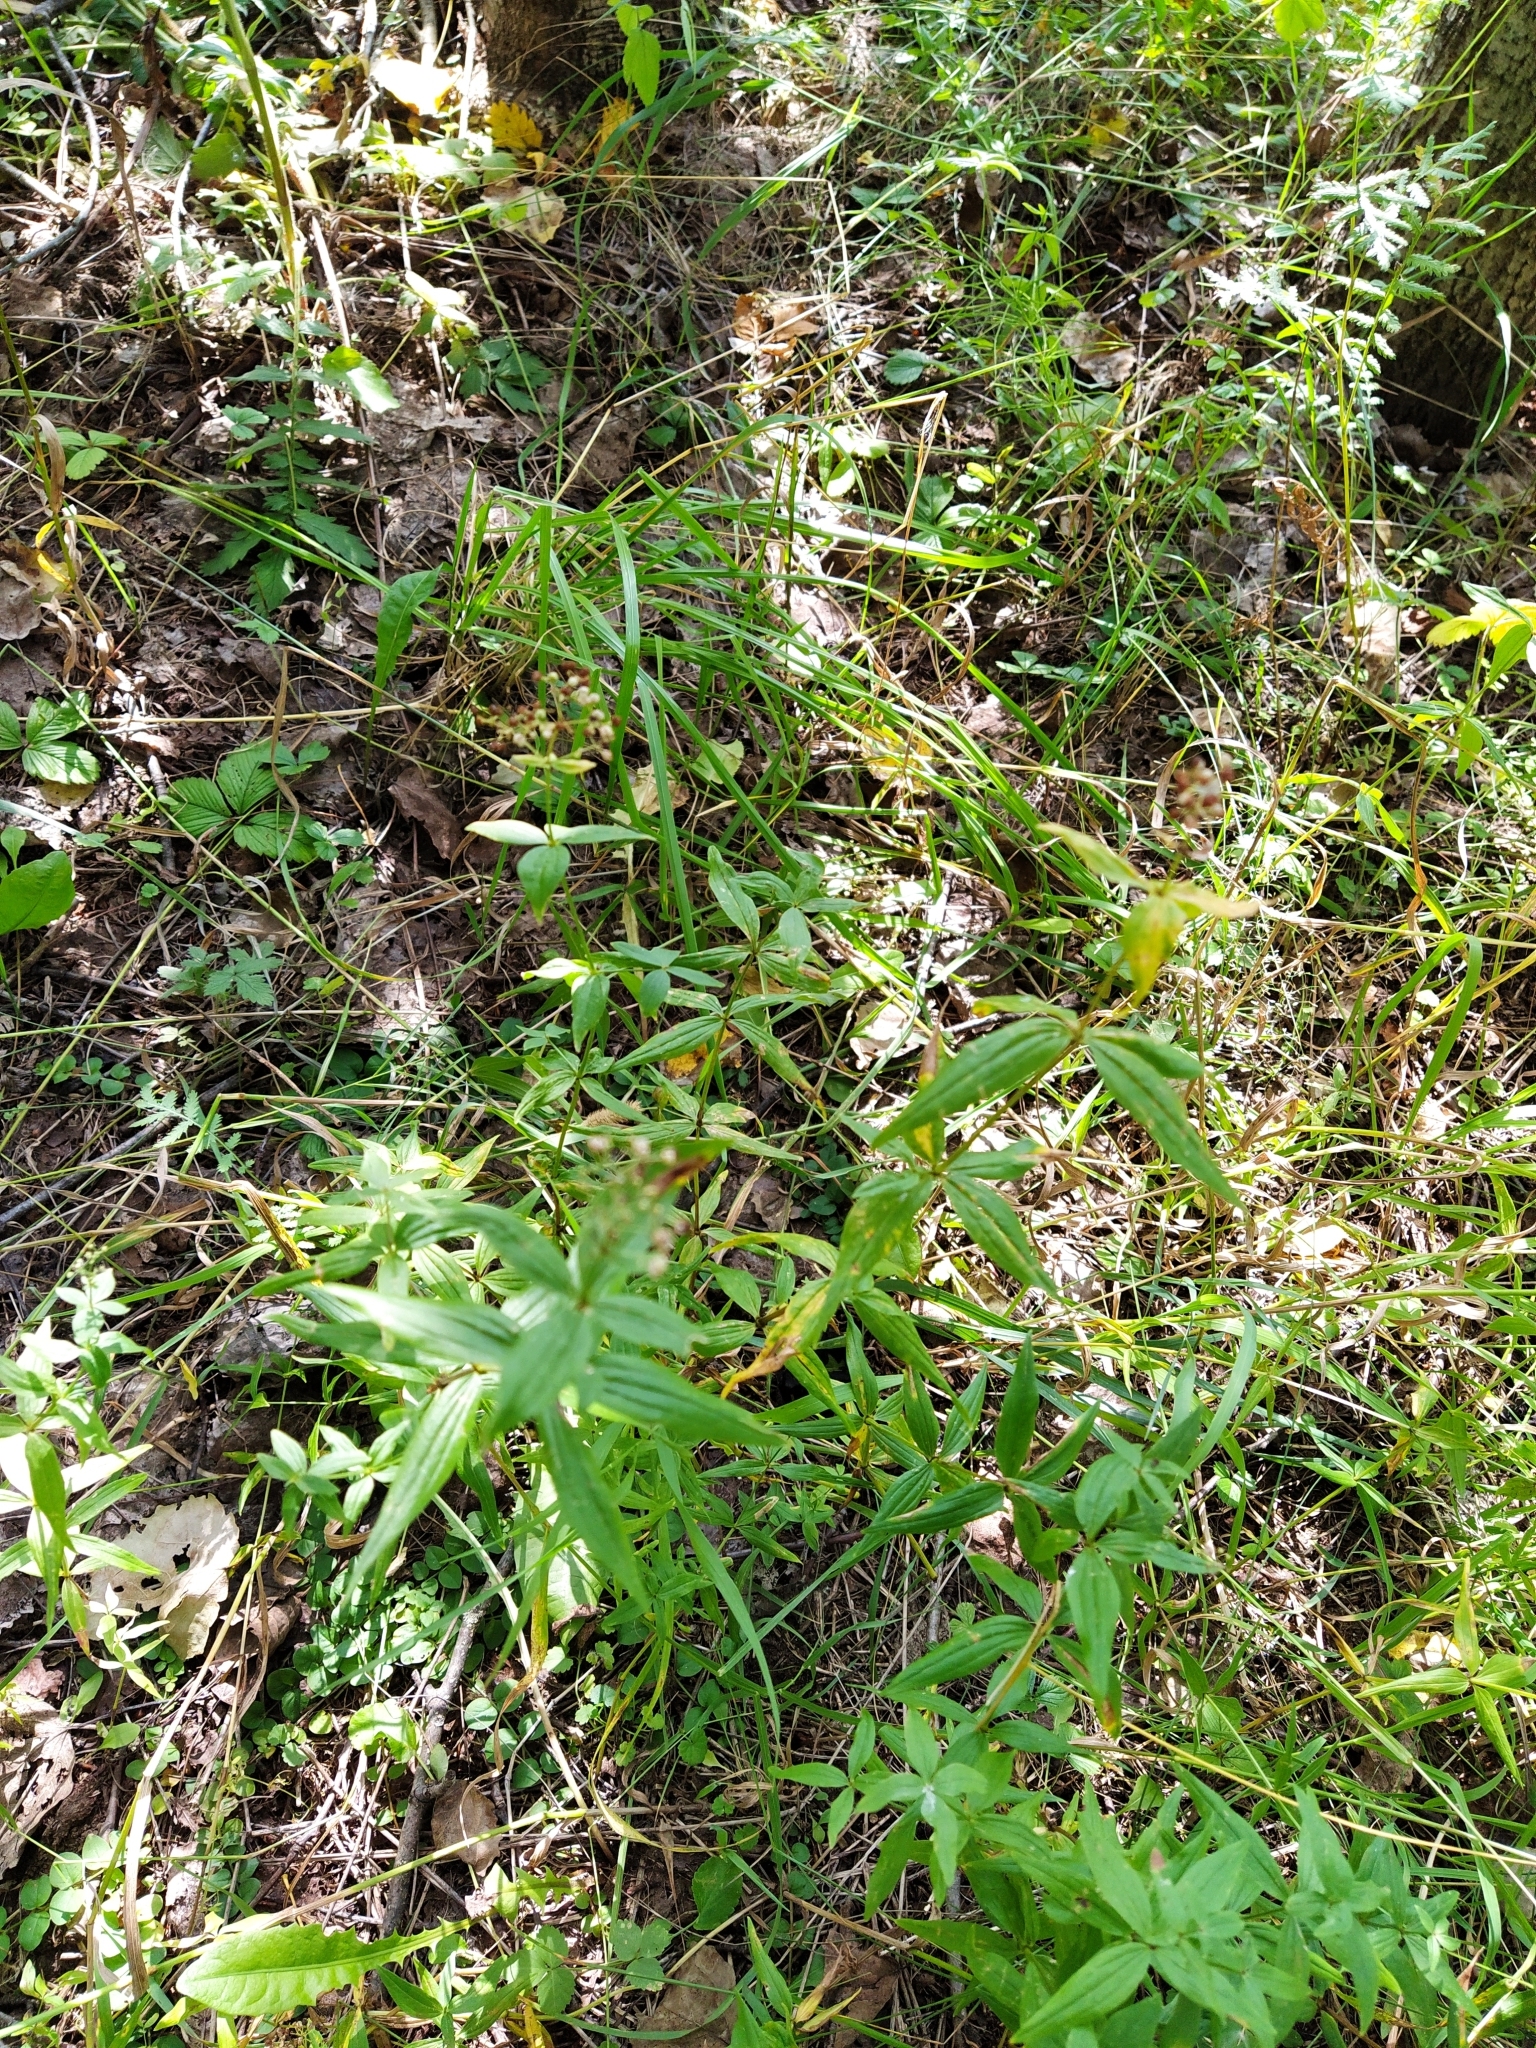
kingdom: Plantae
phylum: Tracheophyta
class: Magnoliopsida
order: Gentianales
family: Rubiaceae
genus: Galium
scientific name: Galium boreale
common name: Northern bedstraw
